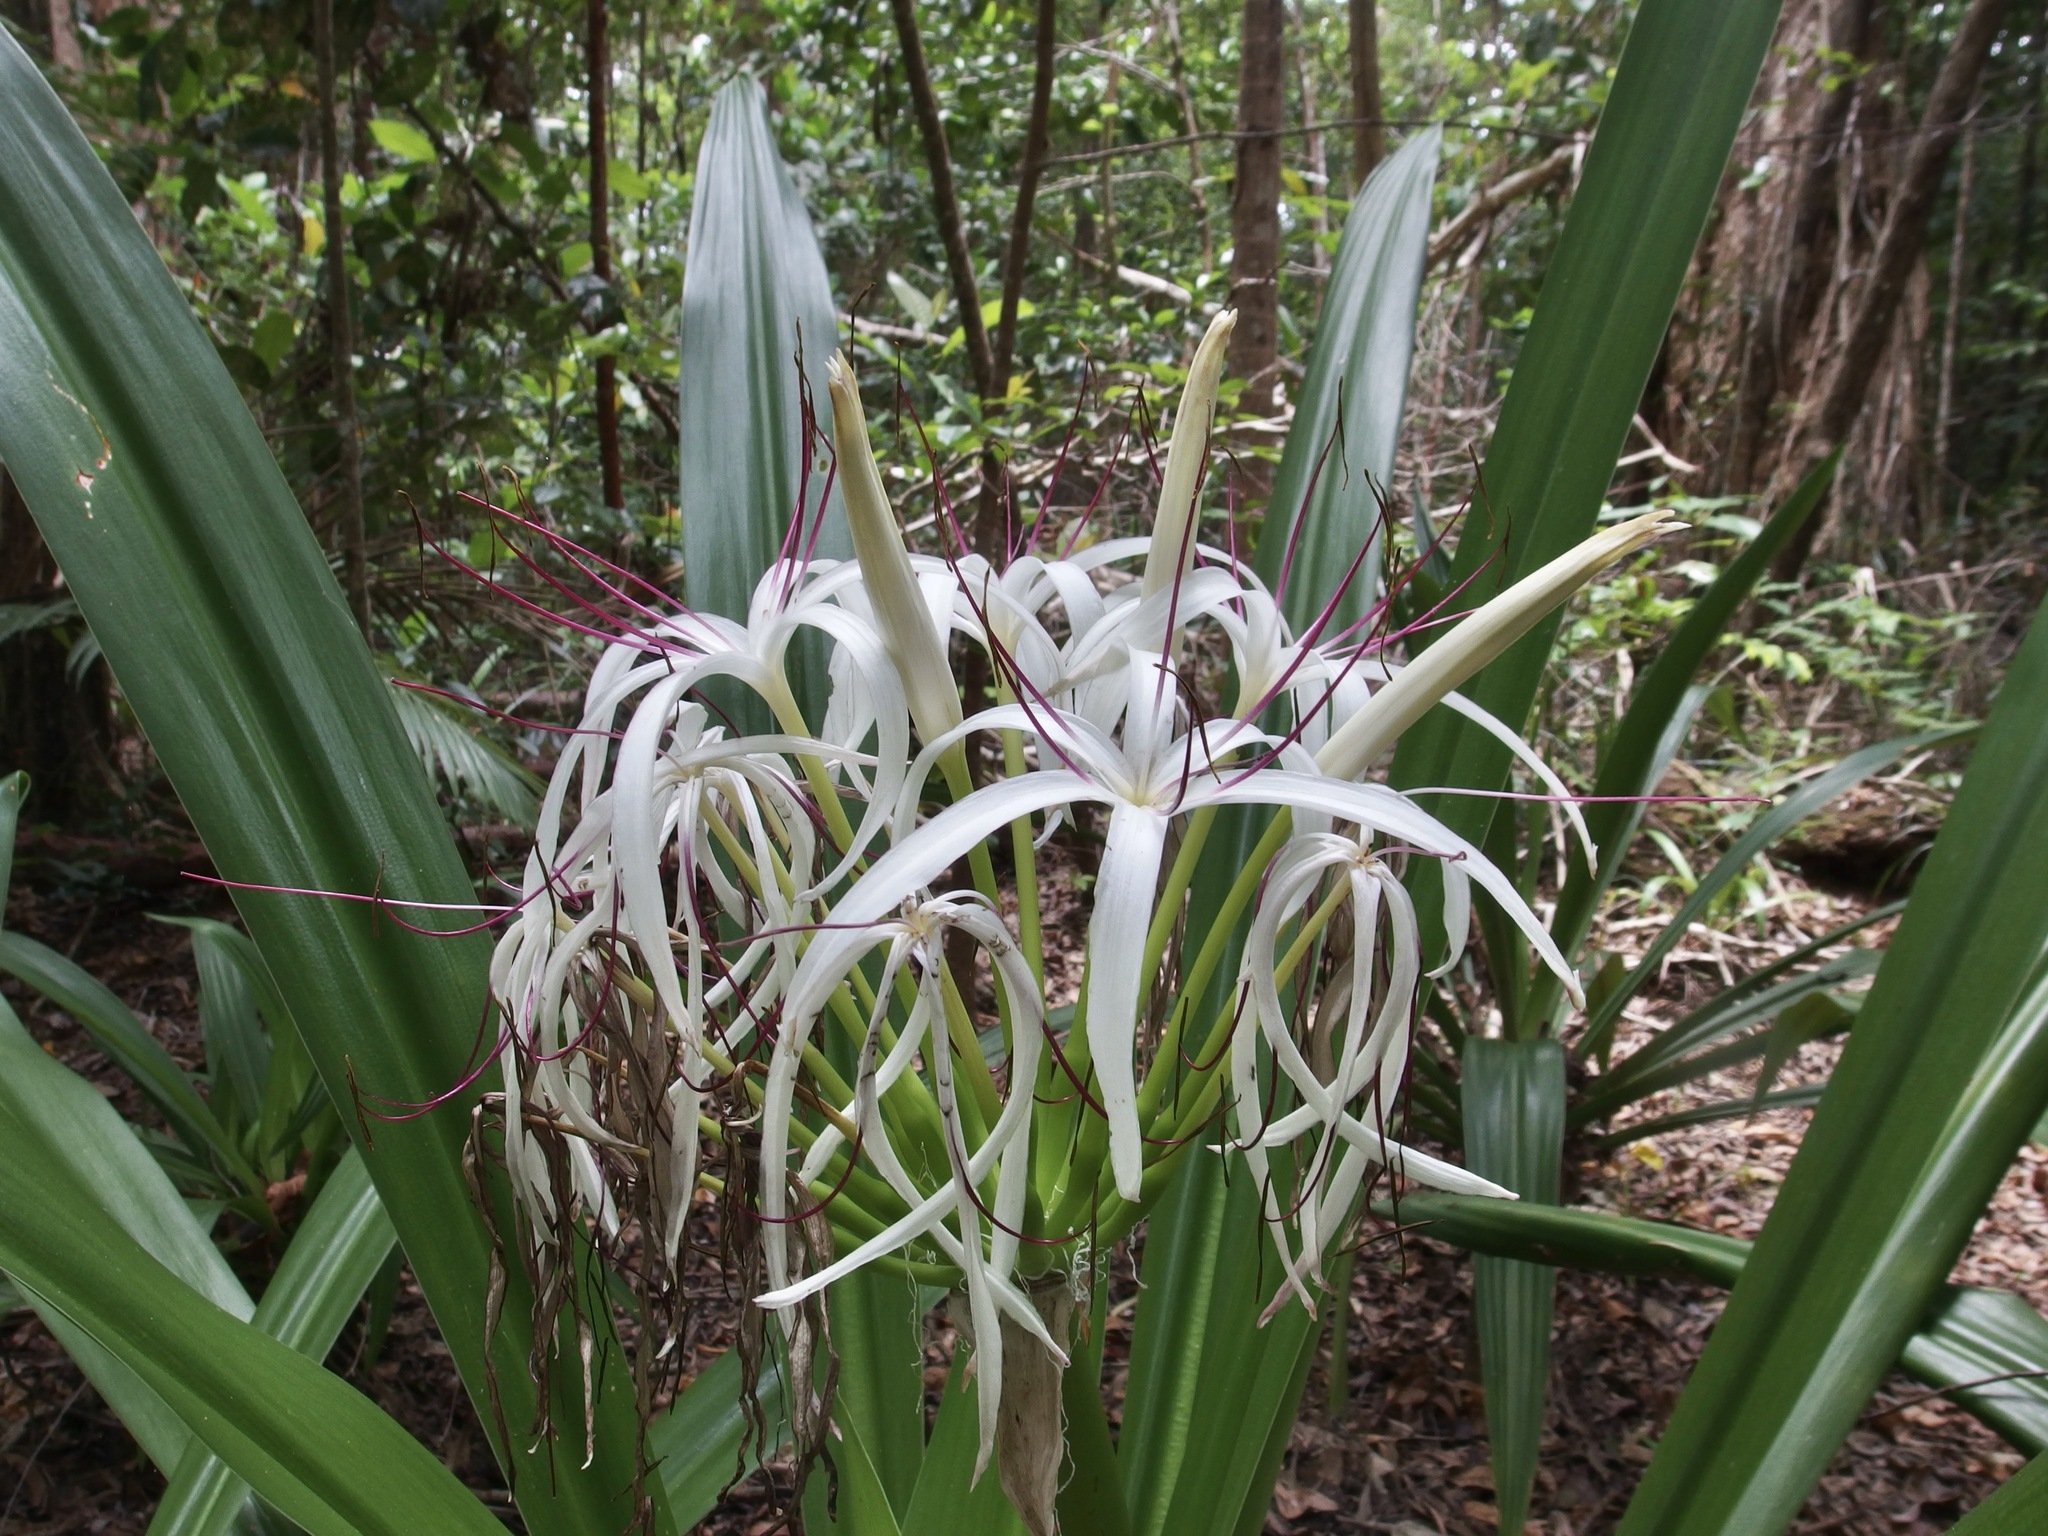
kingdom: Plantae
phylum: Tracheophyta
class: Liliopsida
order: Asparagales
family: Amaryllidaceae
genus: Crinum
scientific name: Crinum pedunculatum
